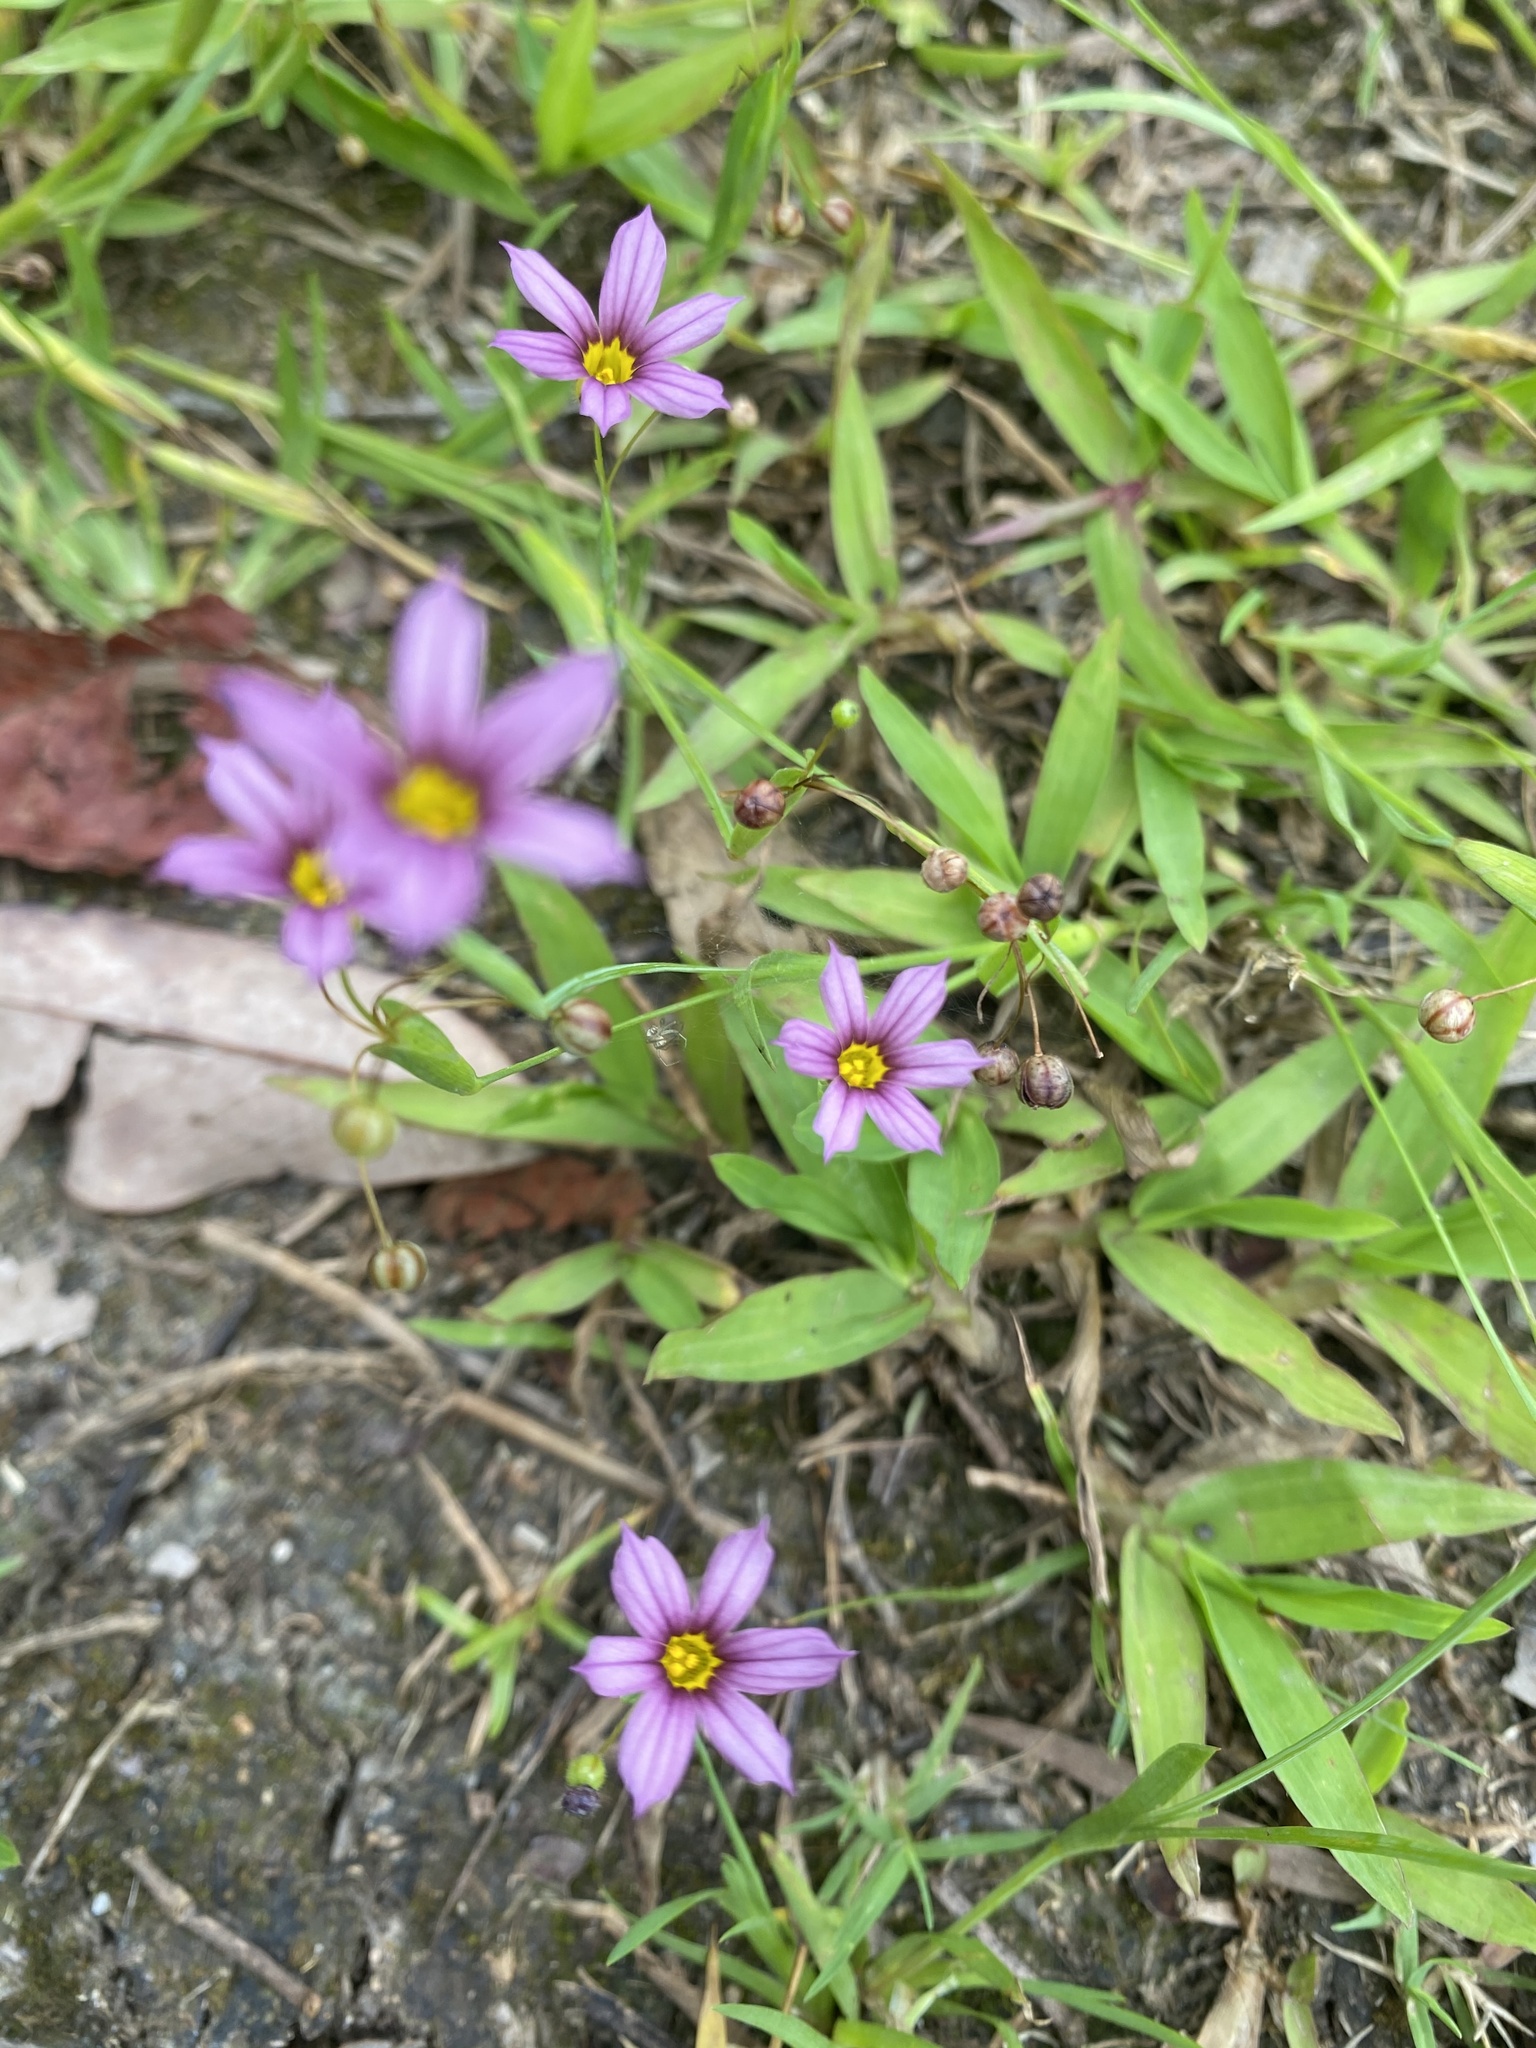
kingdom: Plantae
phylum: Tracheophyta
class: Liliopsida
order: Asparagales
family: Iridaceae
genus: Sisyrinchium
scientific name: Sisyrinchium micranthum
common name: Bermuda pigroot
